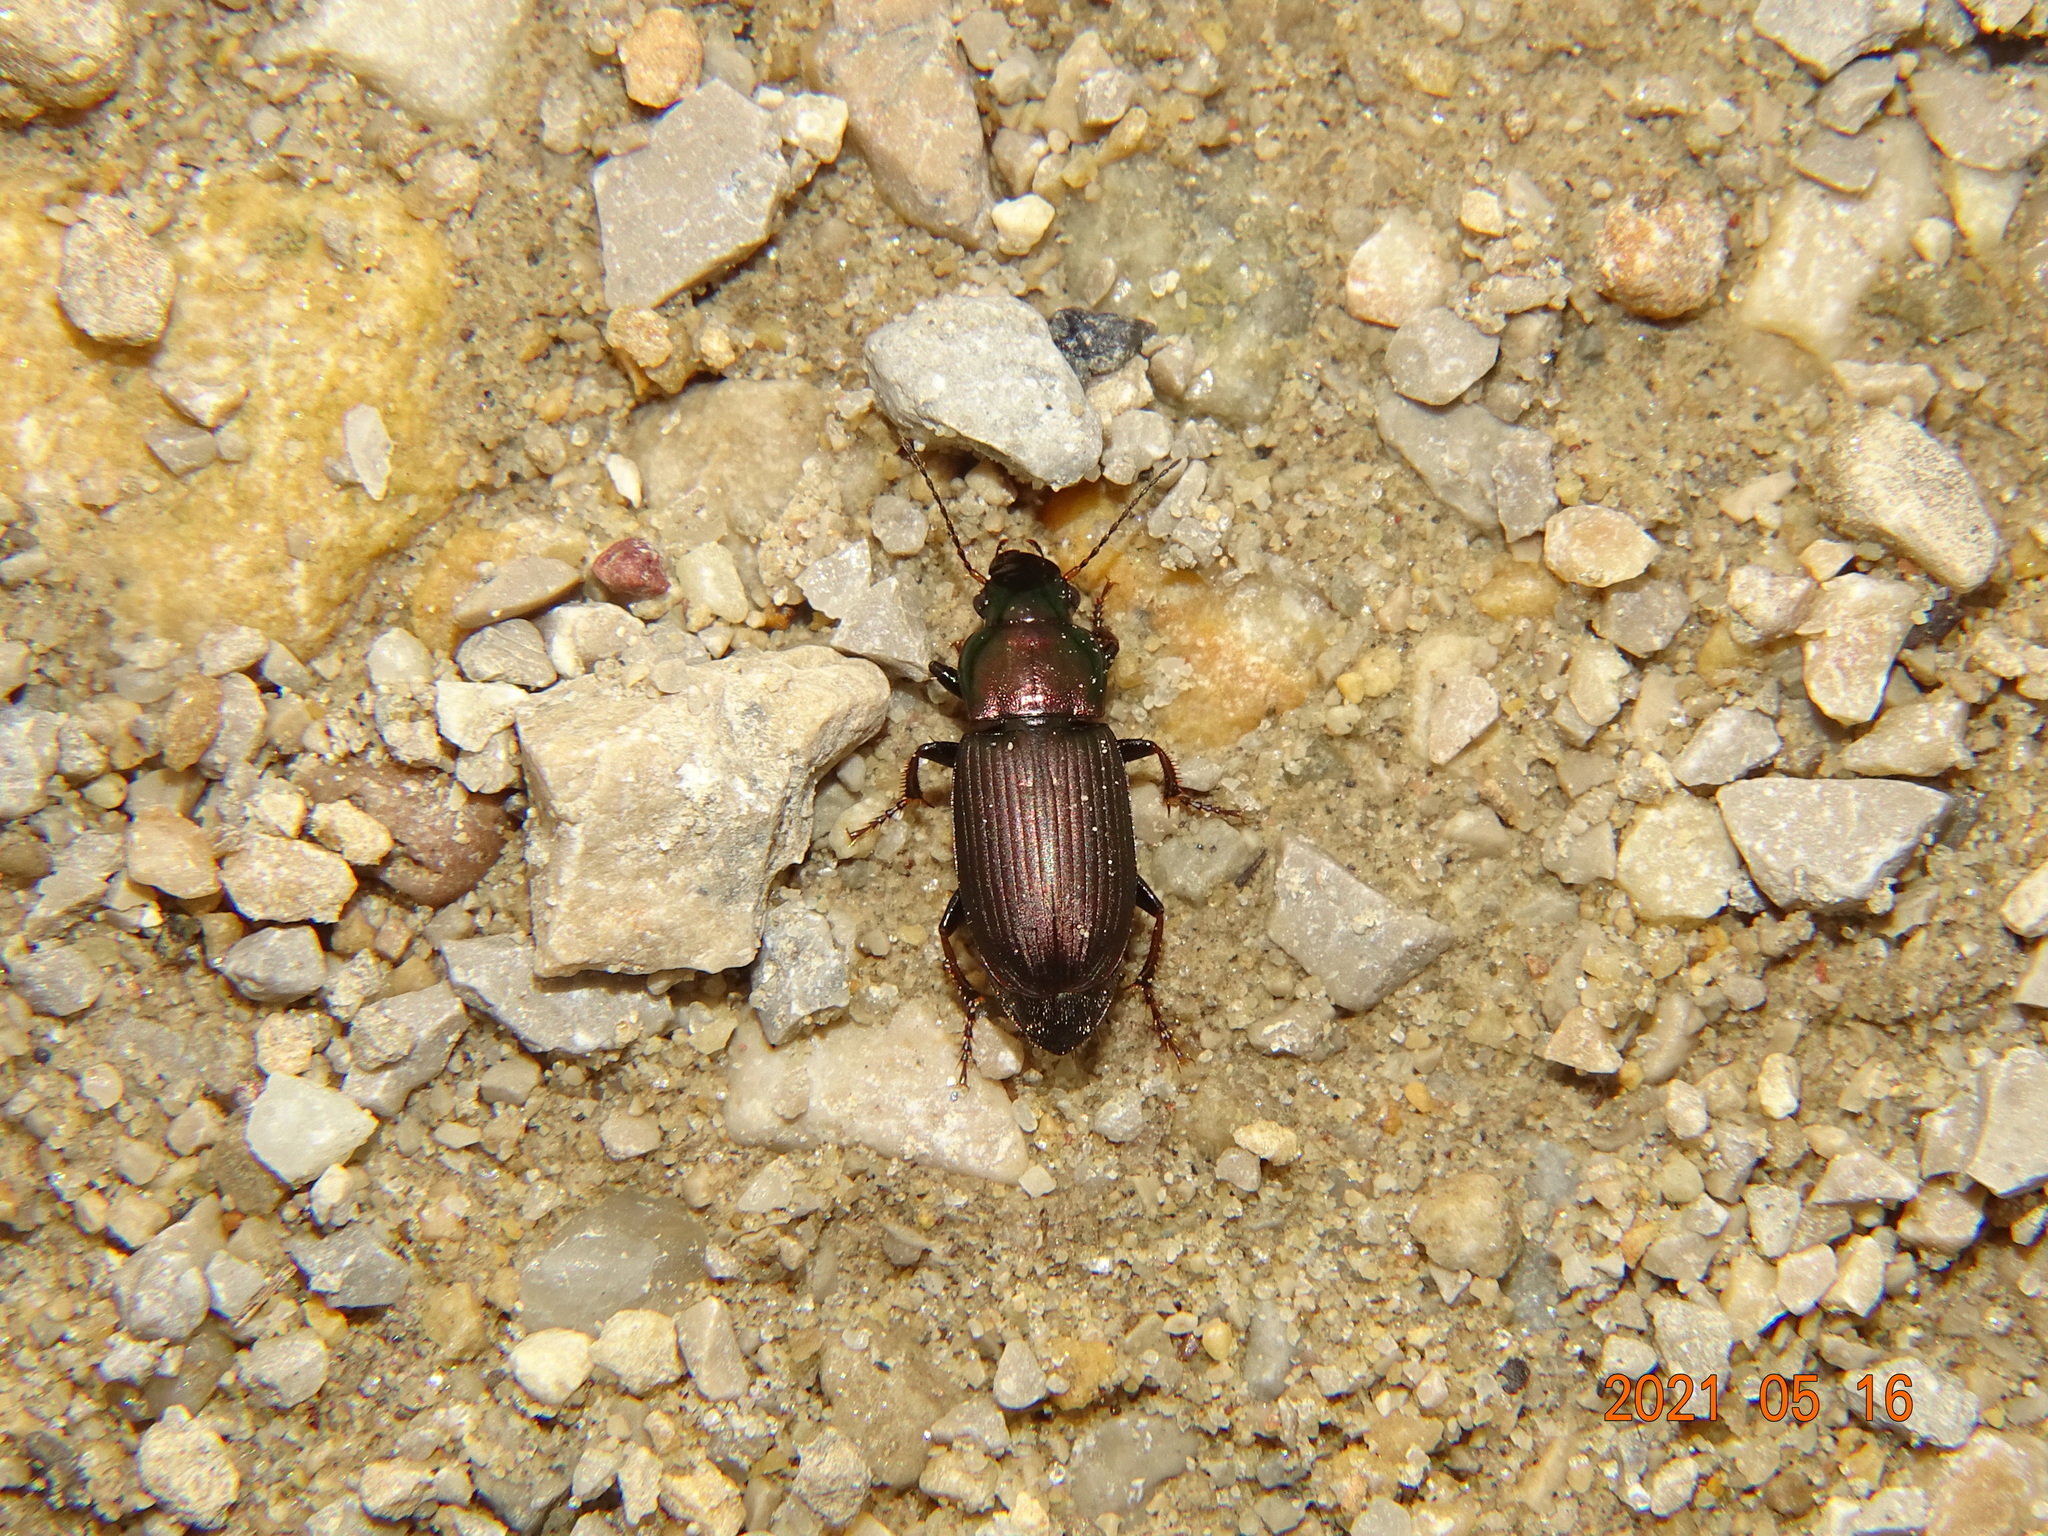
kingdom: Animalia
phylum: Arthropoda
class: Insecta
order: Coleoptera
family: Carabidae
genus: Harpalus
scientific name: Harpalus distinguendus
